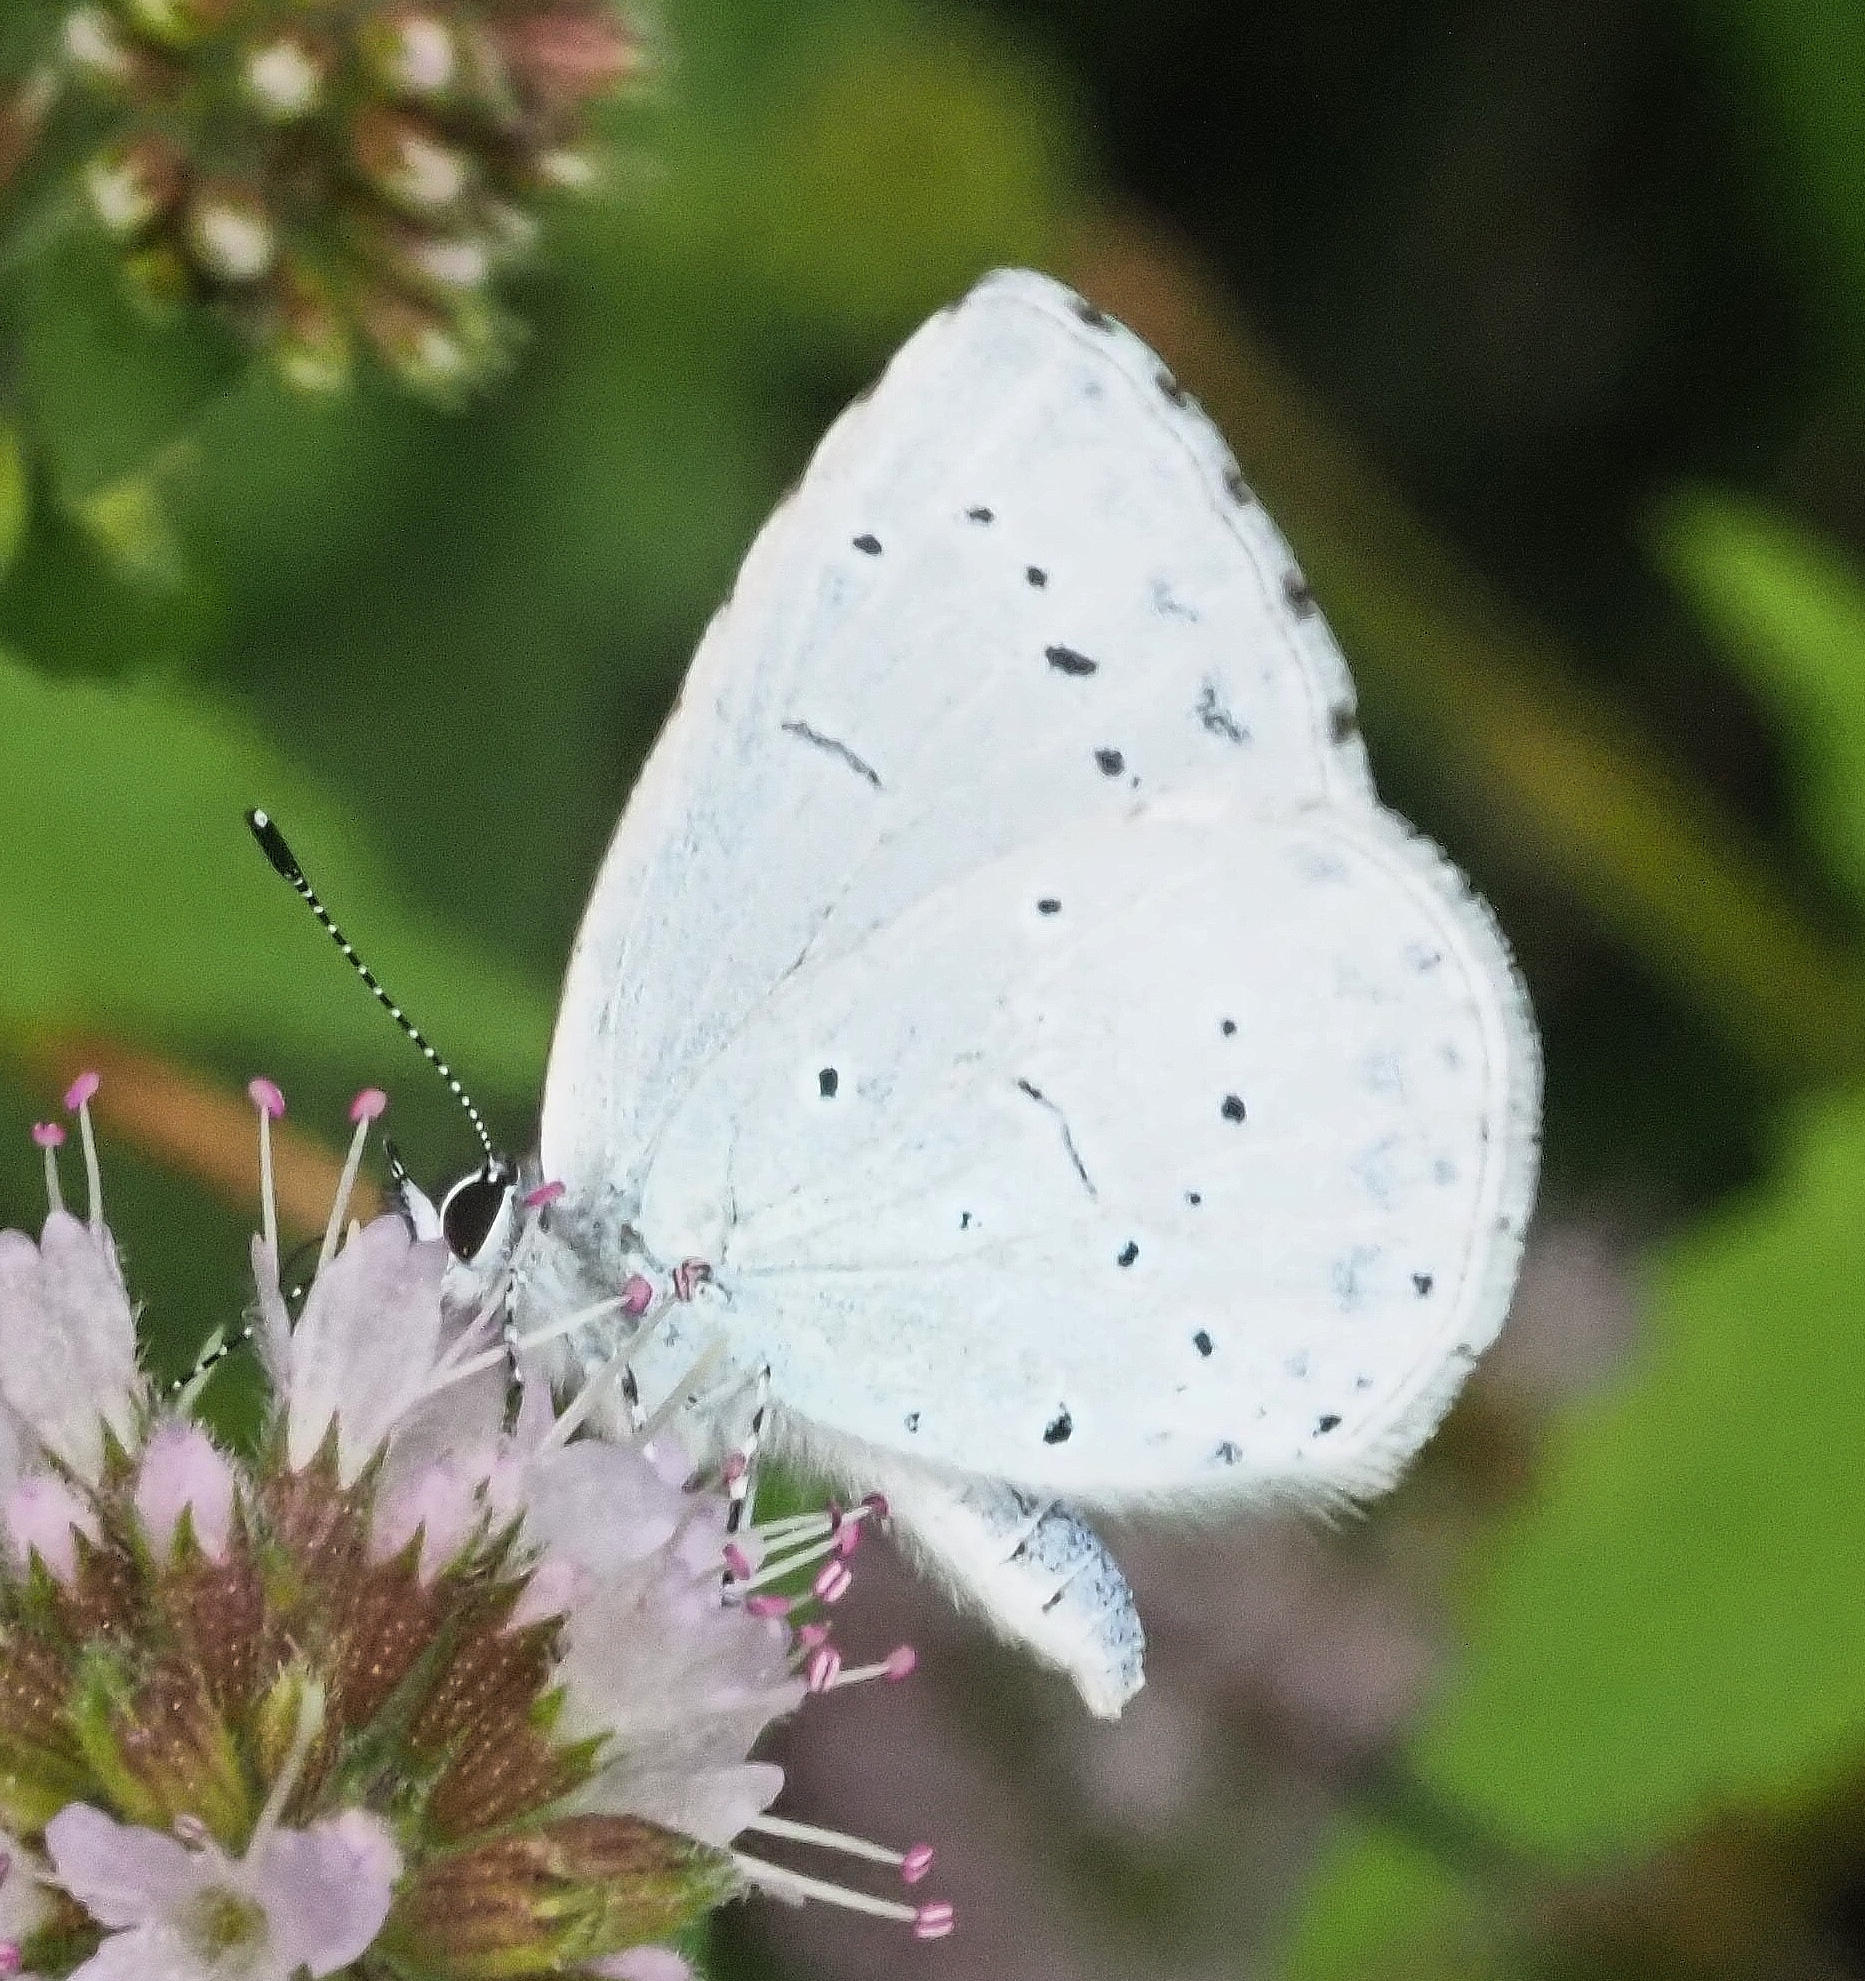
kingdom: Animalia
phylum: Arthropoda
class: Insecta
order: Lepidoptera
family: Lycaenidae
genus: Celastrina
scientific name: Celastrina argiolus
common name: Holly blue
